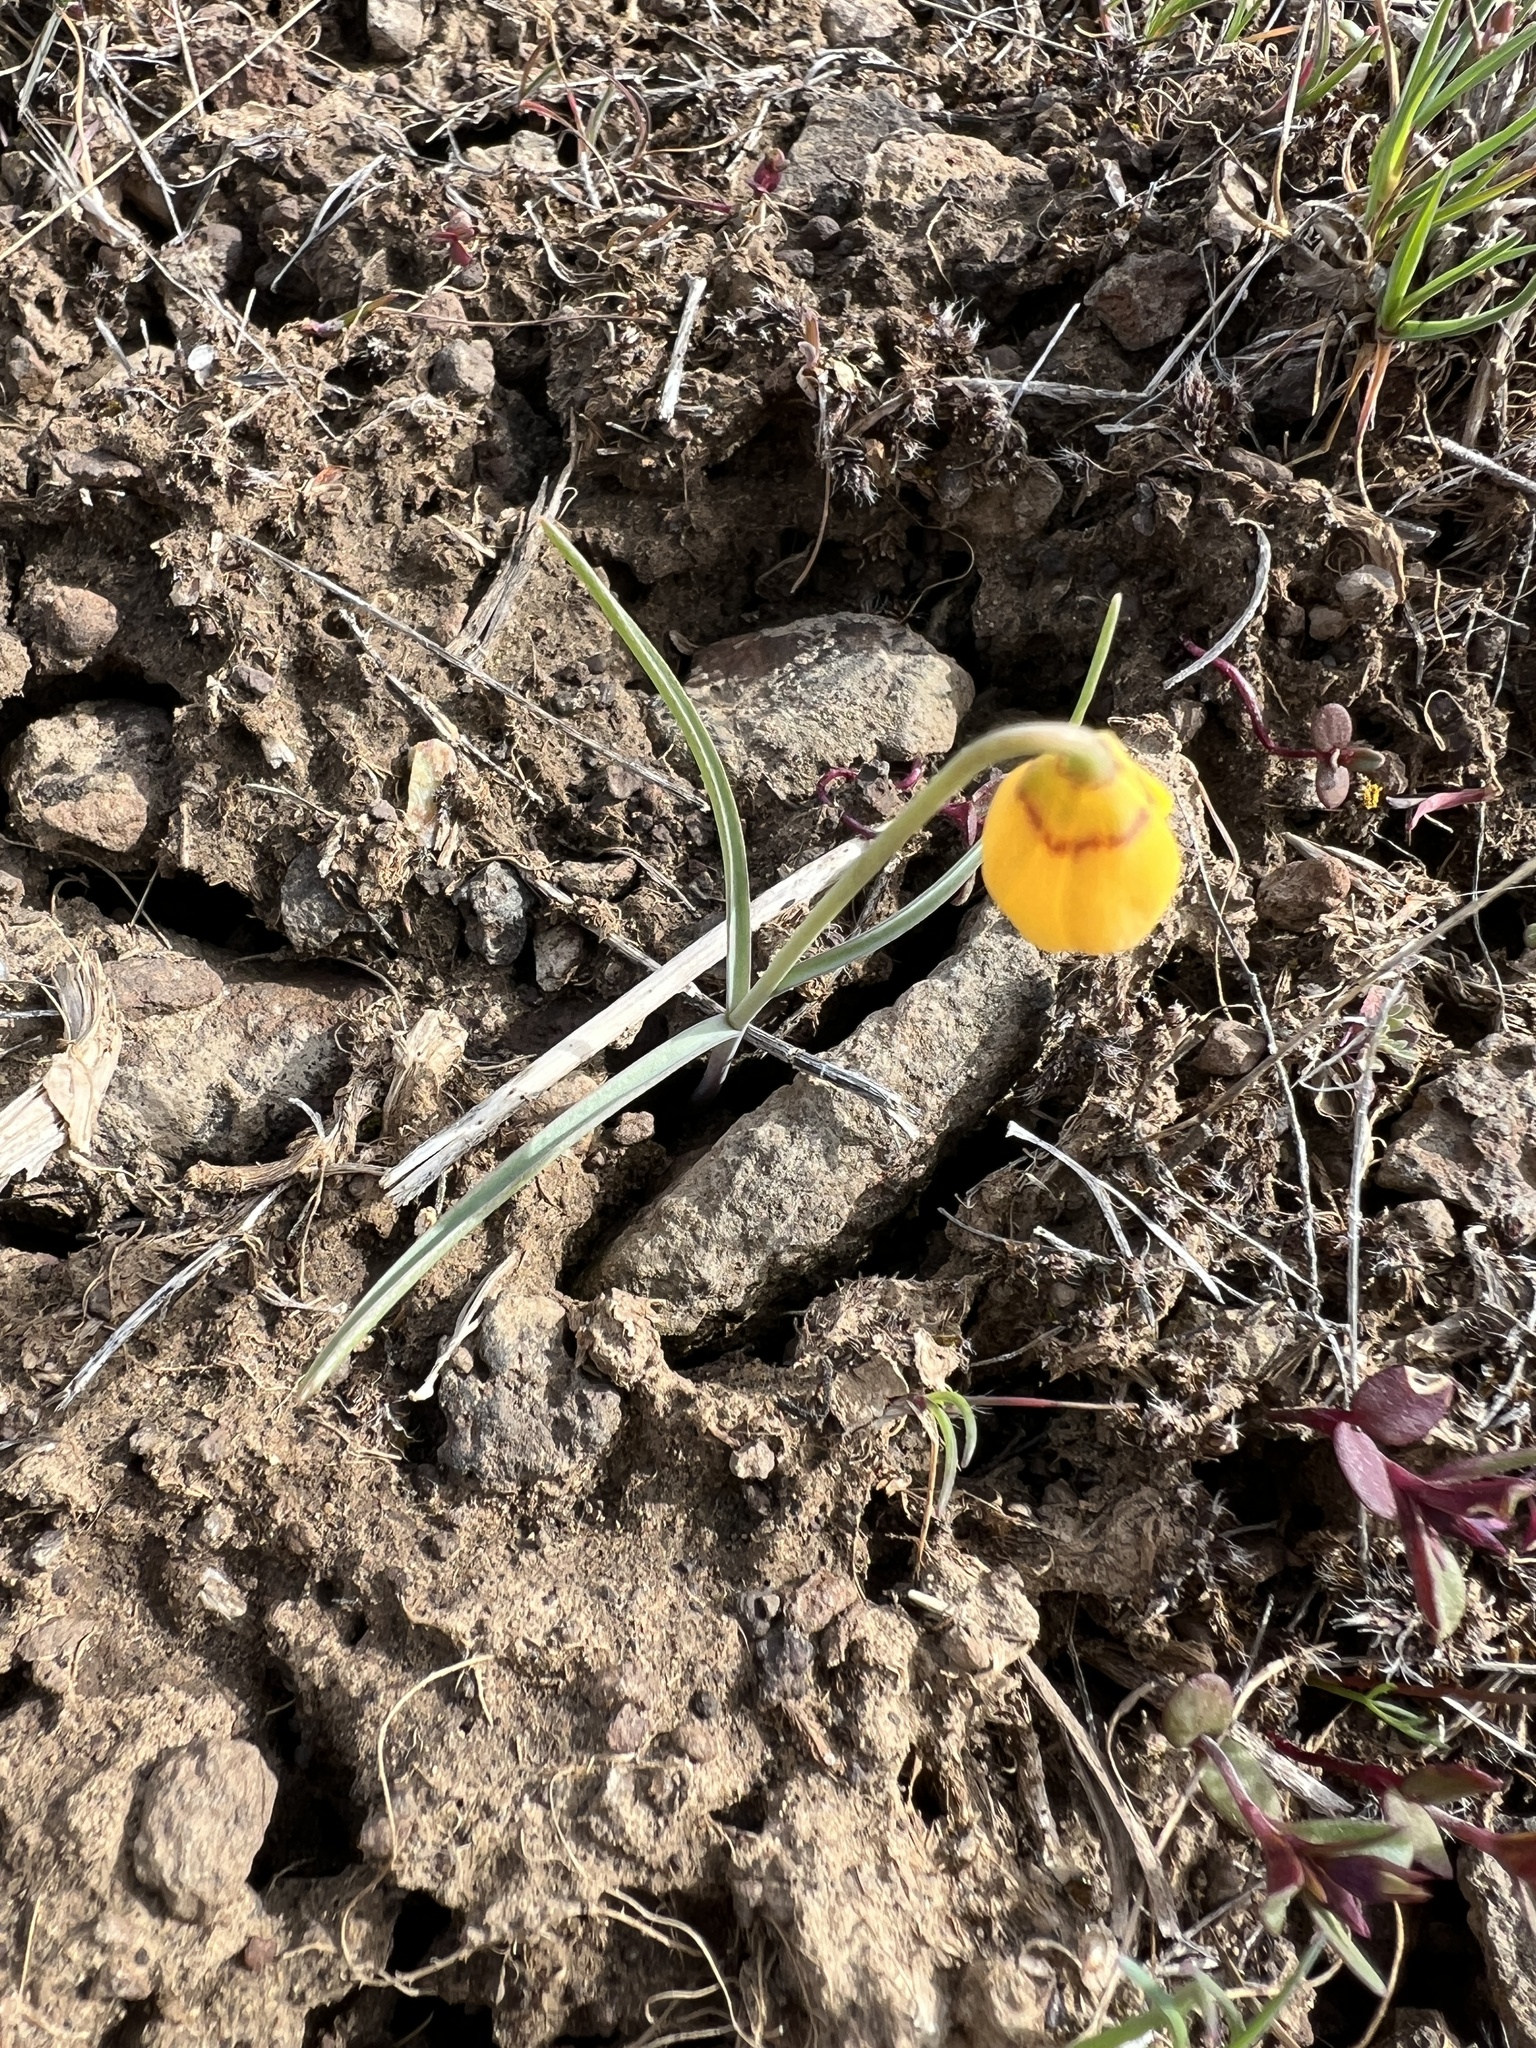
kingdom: Plantae
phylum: Tracheophyta
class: Liliopsida
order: Liliales
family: Liliaceae
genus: Fritillaria
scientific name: Fritillaria pudica
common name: Yellow fritillary
